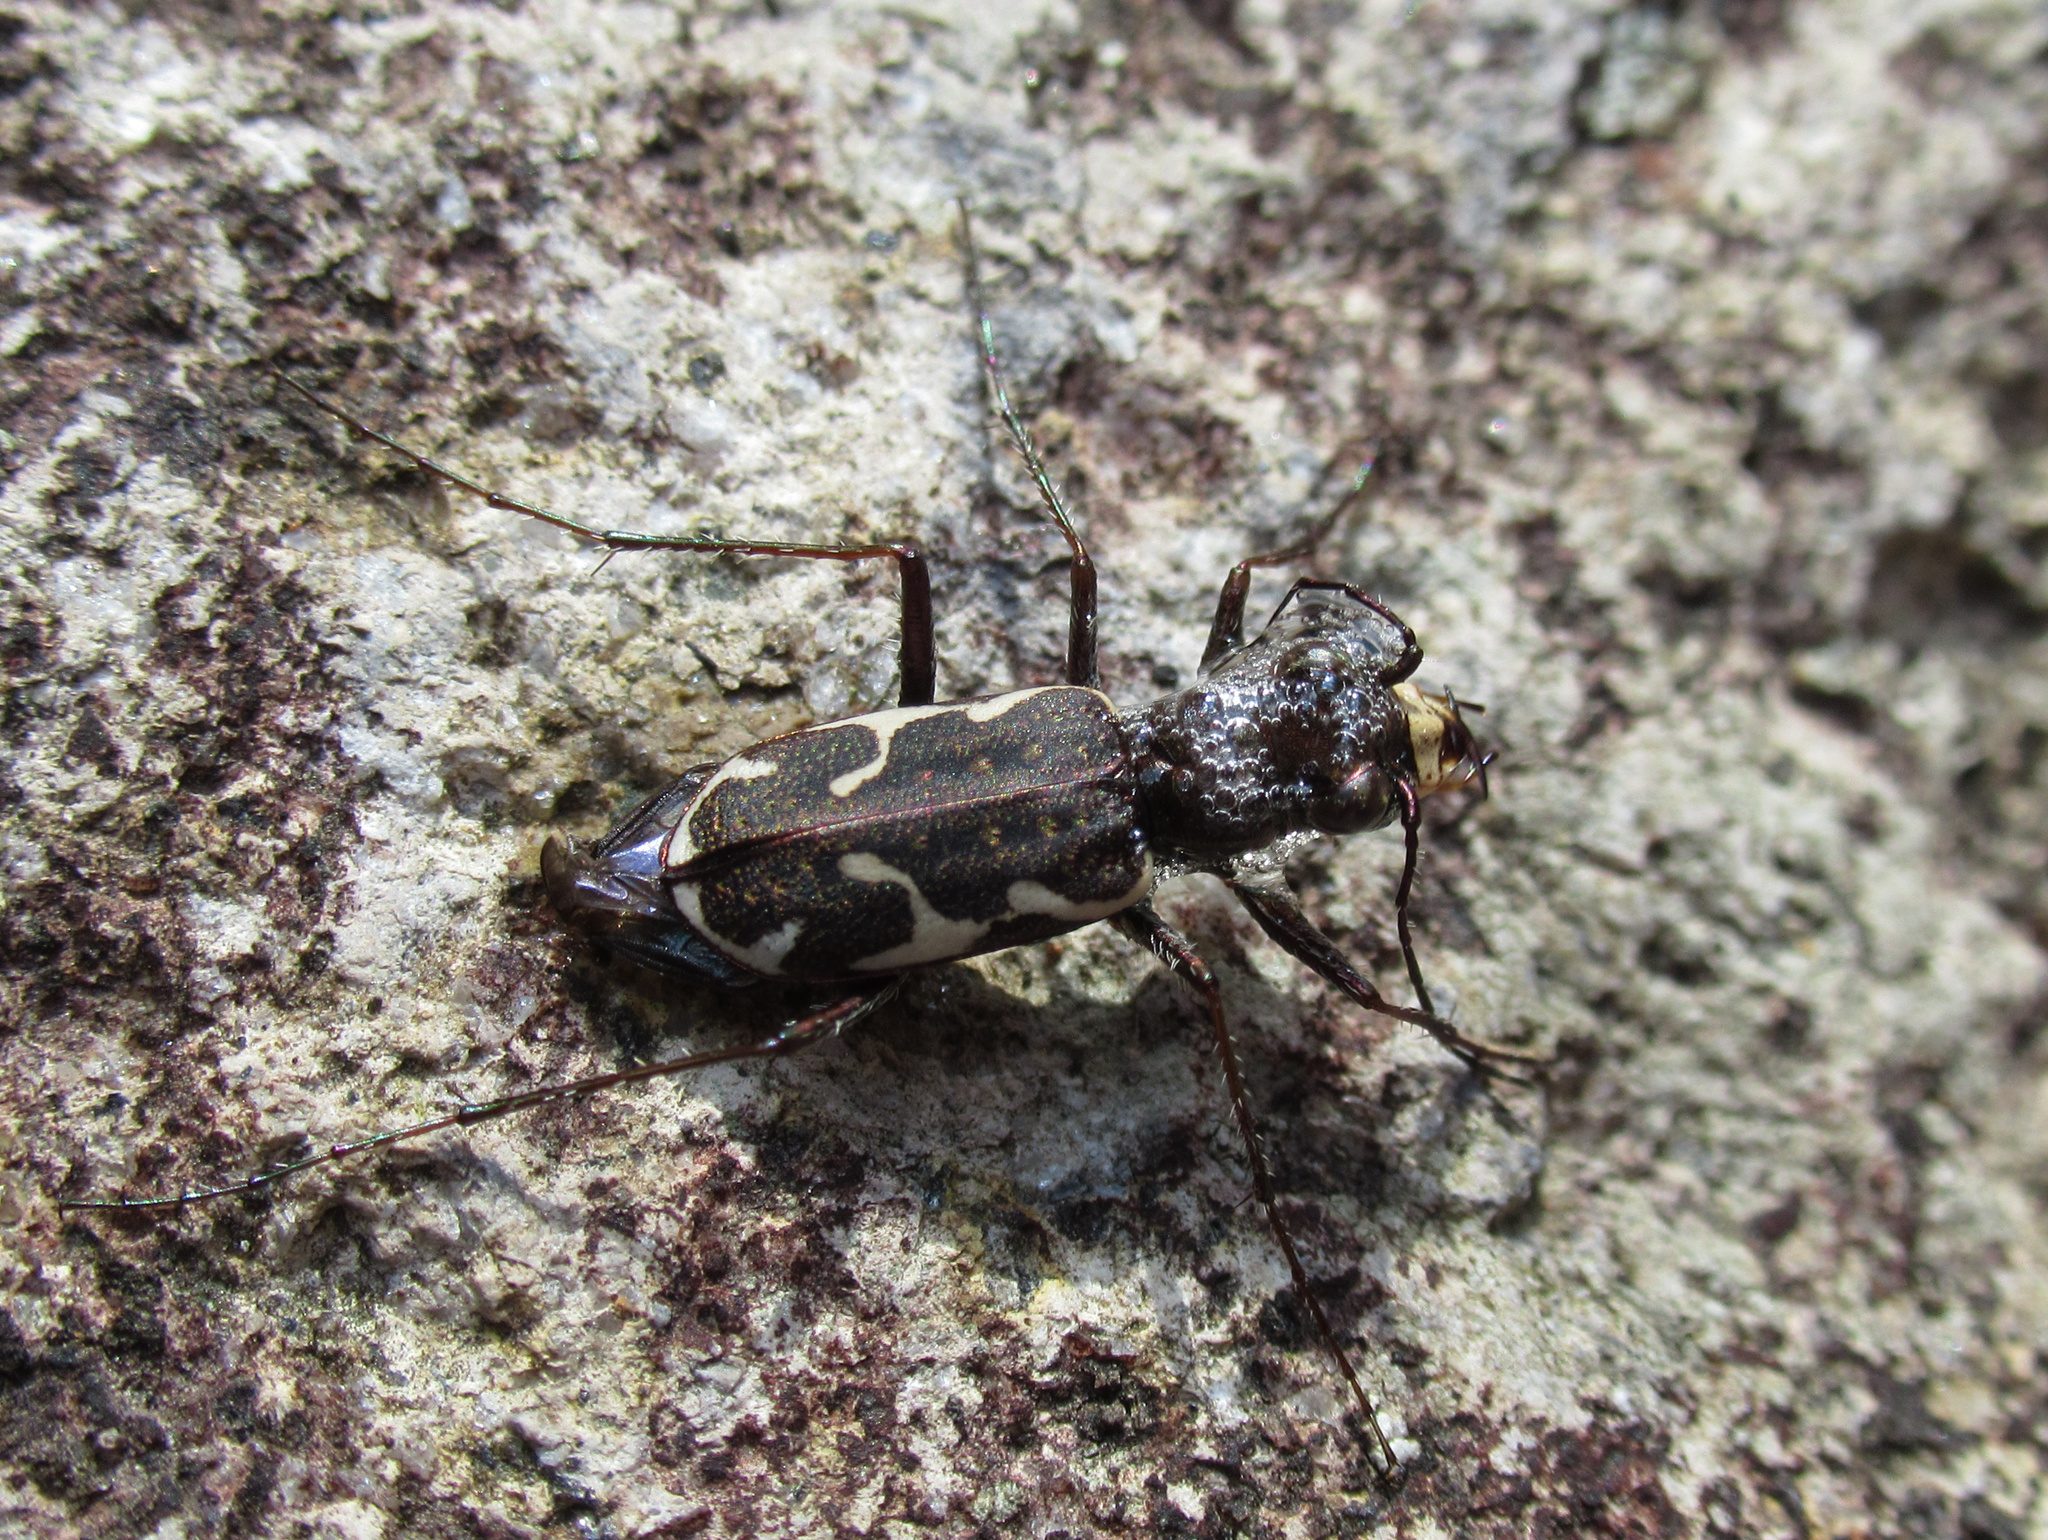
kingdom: Animalia
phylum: Arthropoda
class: Insecta
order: Coleoptera
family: Carabidae
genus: Neocicindela
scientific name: Neocicindela tuberculata
